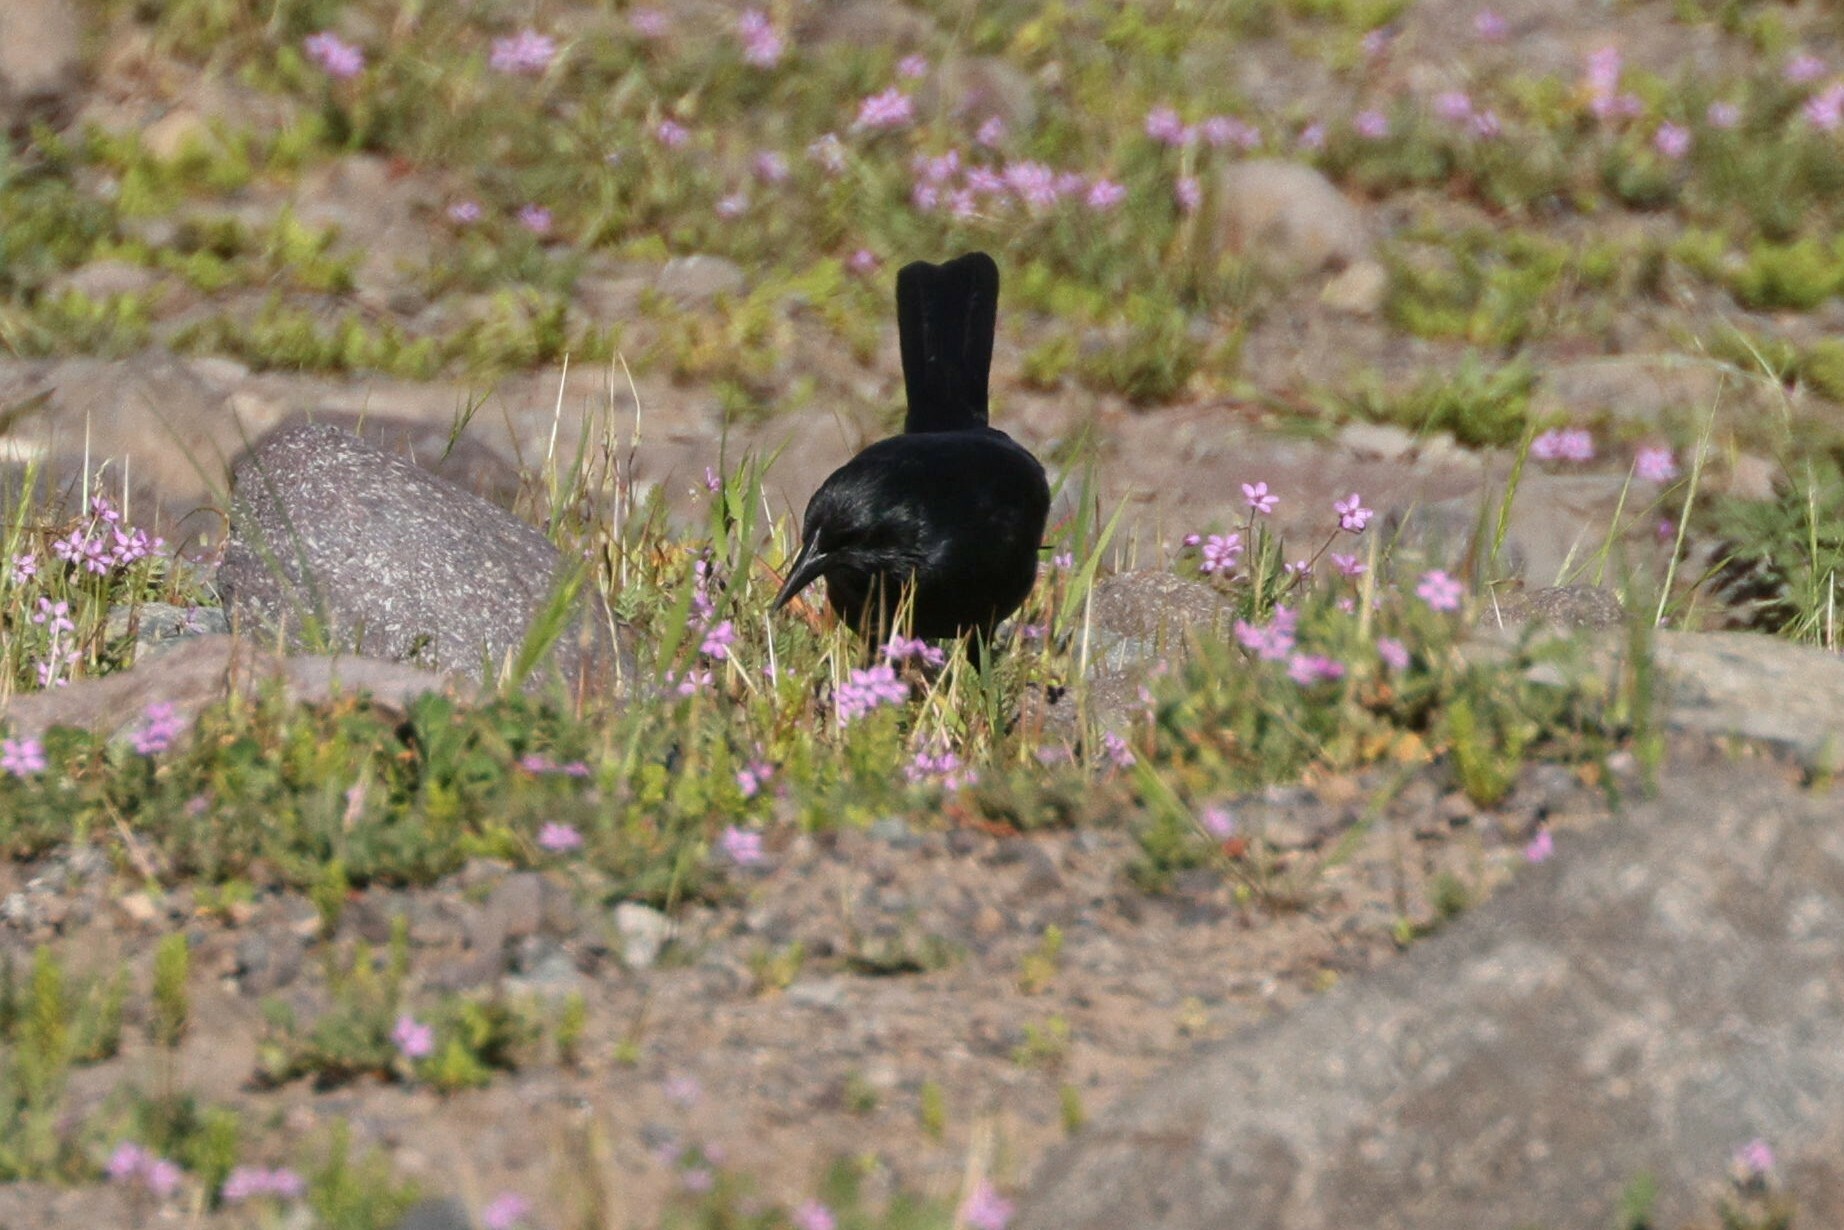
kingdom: Animalia
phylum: Chordata
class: Aves
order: Passeriformes
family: Icteridae
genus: Curaeus
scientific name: Curaeus curaeus
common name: Austral blackbird
